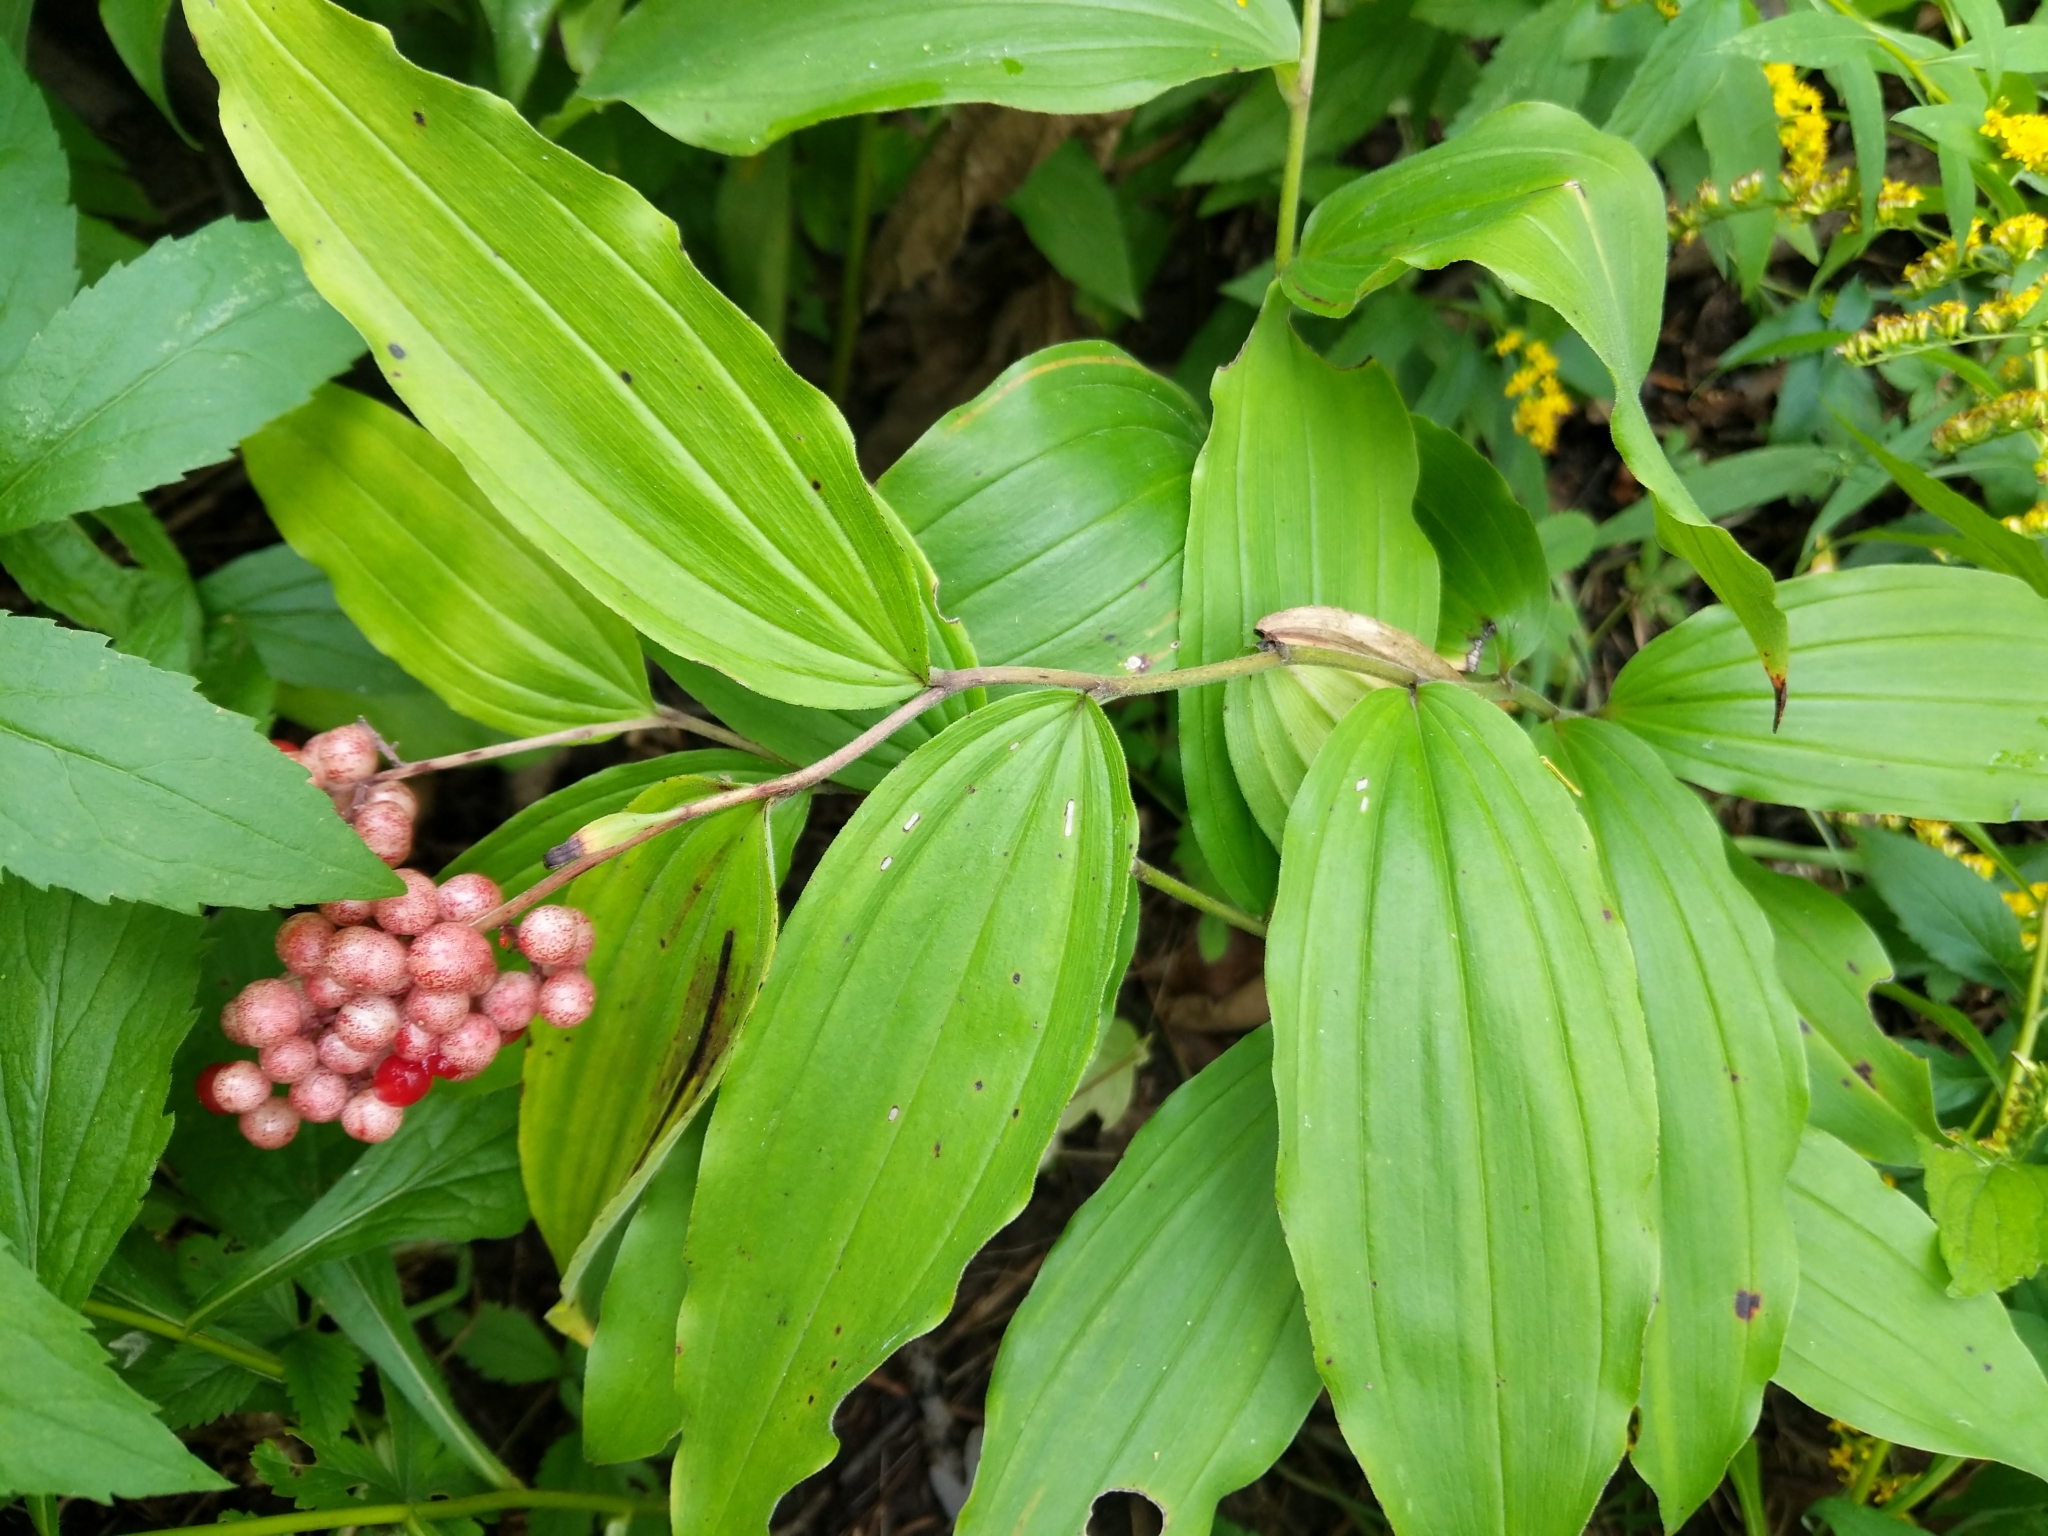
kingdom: Plantae
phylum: Tracheophyta
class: Liliopsida
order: Asparagales
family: Asparagaceae
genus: Maianthemum
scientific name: Maianthemum racemosum
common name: False spikenard
